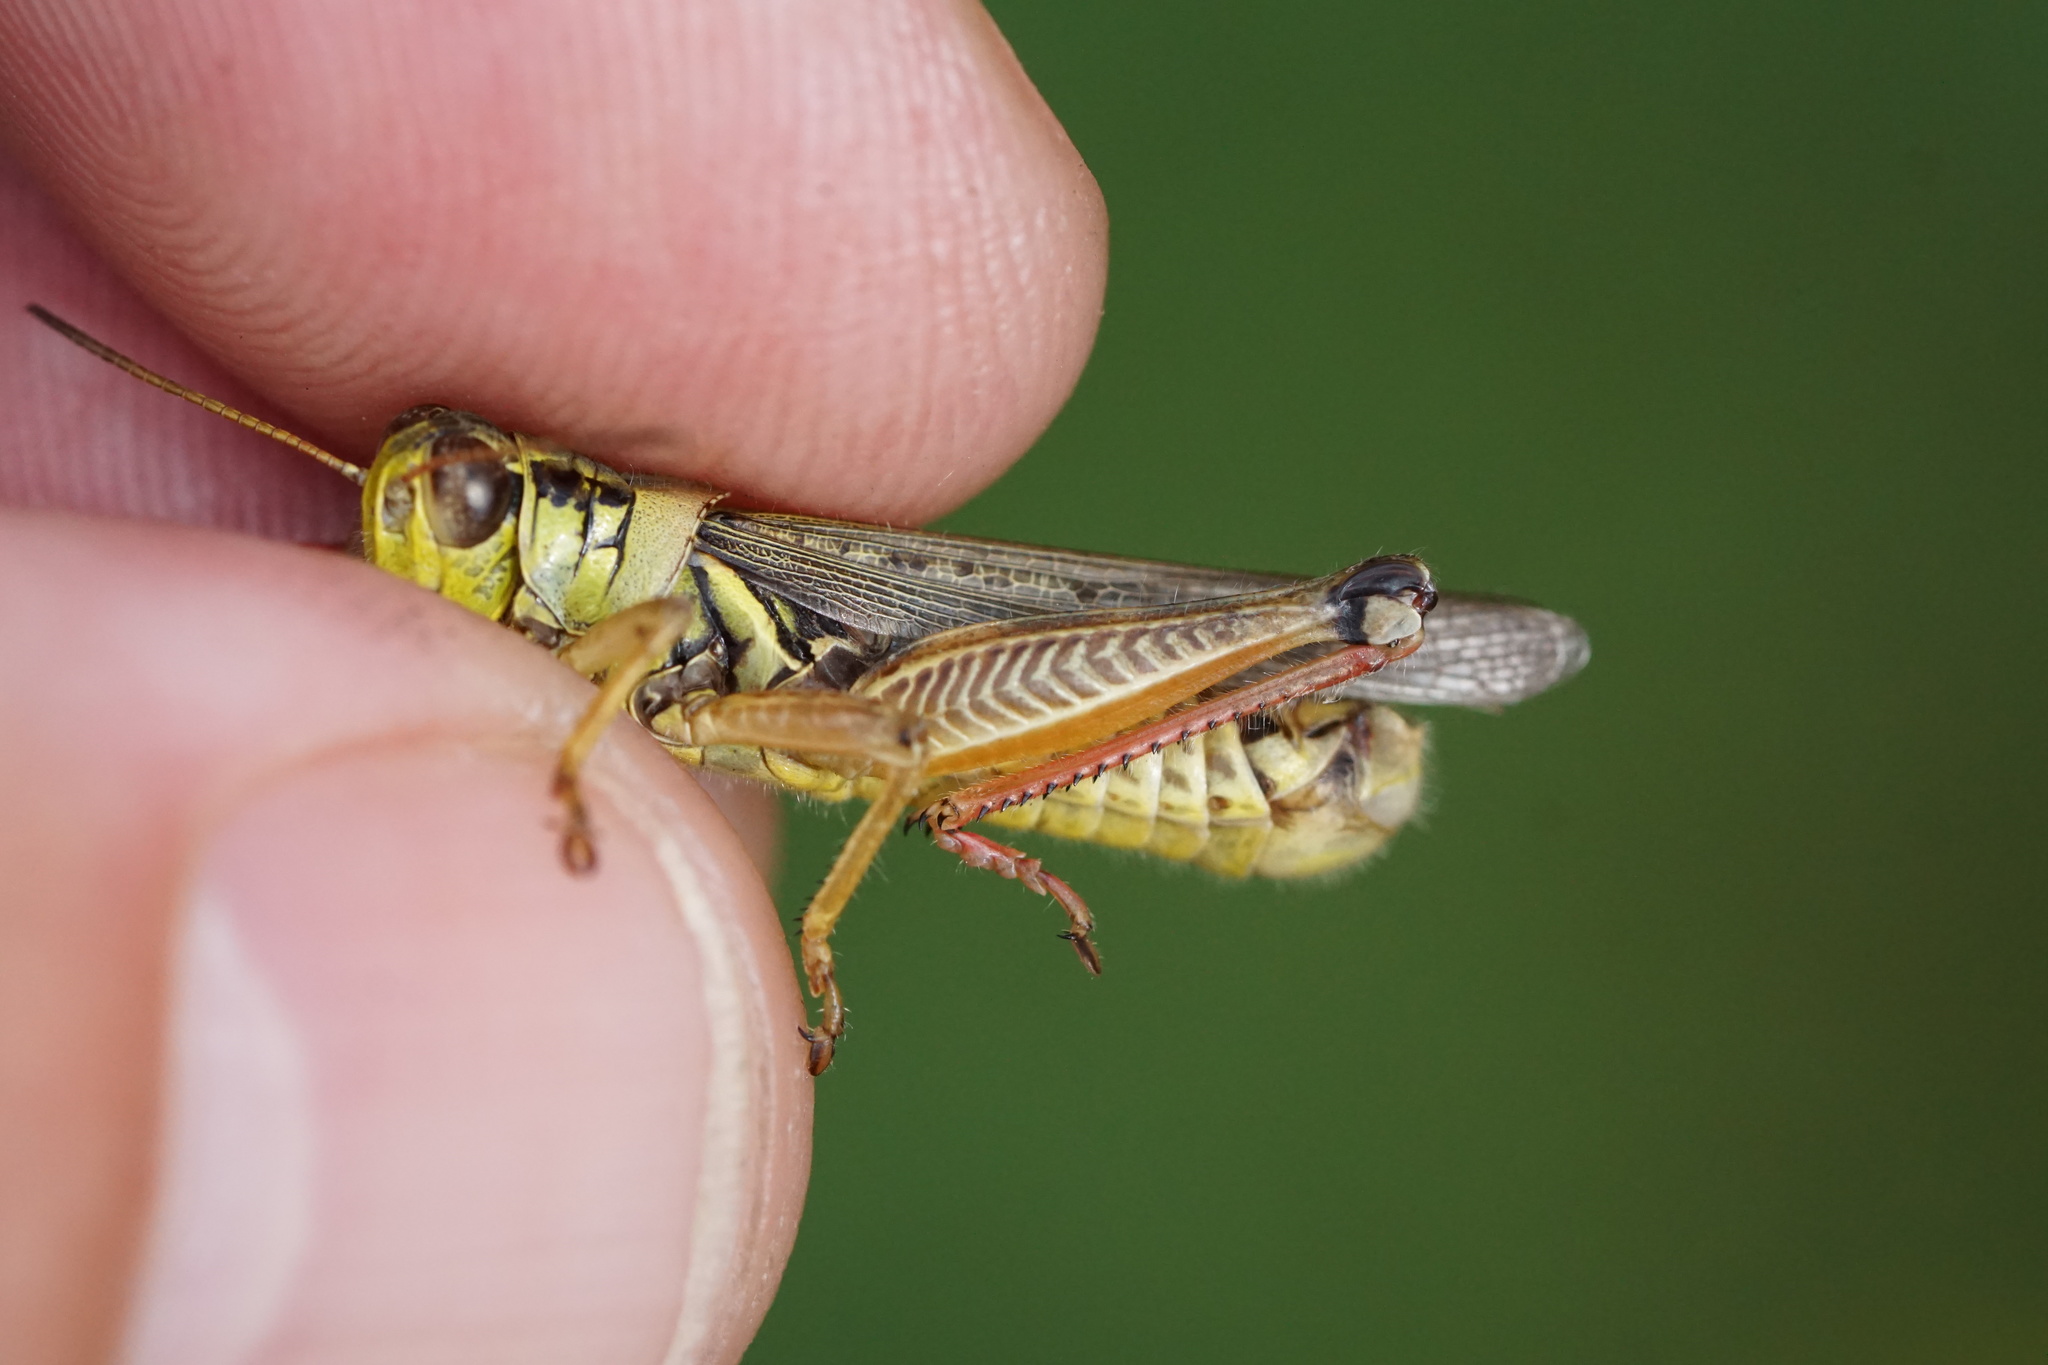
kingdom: Animalia
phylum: Arthropoda
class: Insecta
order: Orthoptera
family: Acrididae
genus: Melanoplus
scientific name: Melanoplus femurrubrum
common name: Red-legged grasshopper
